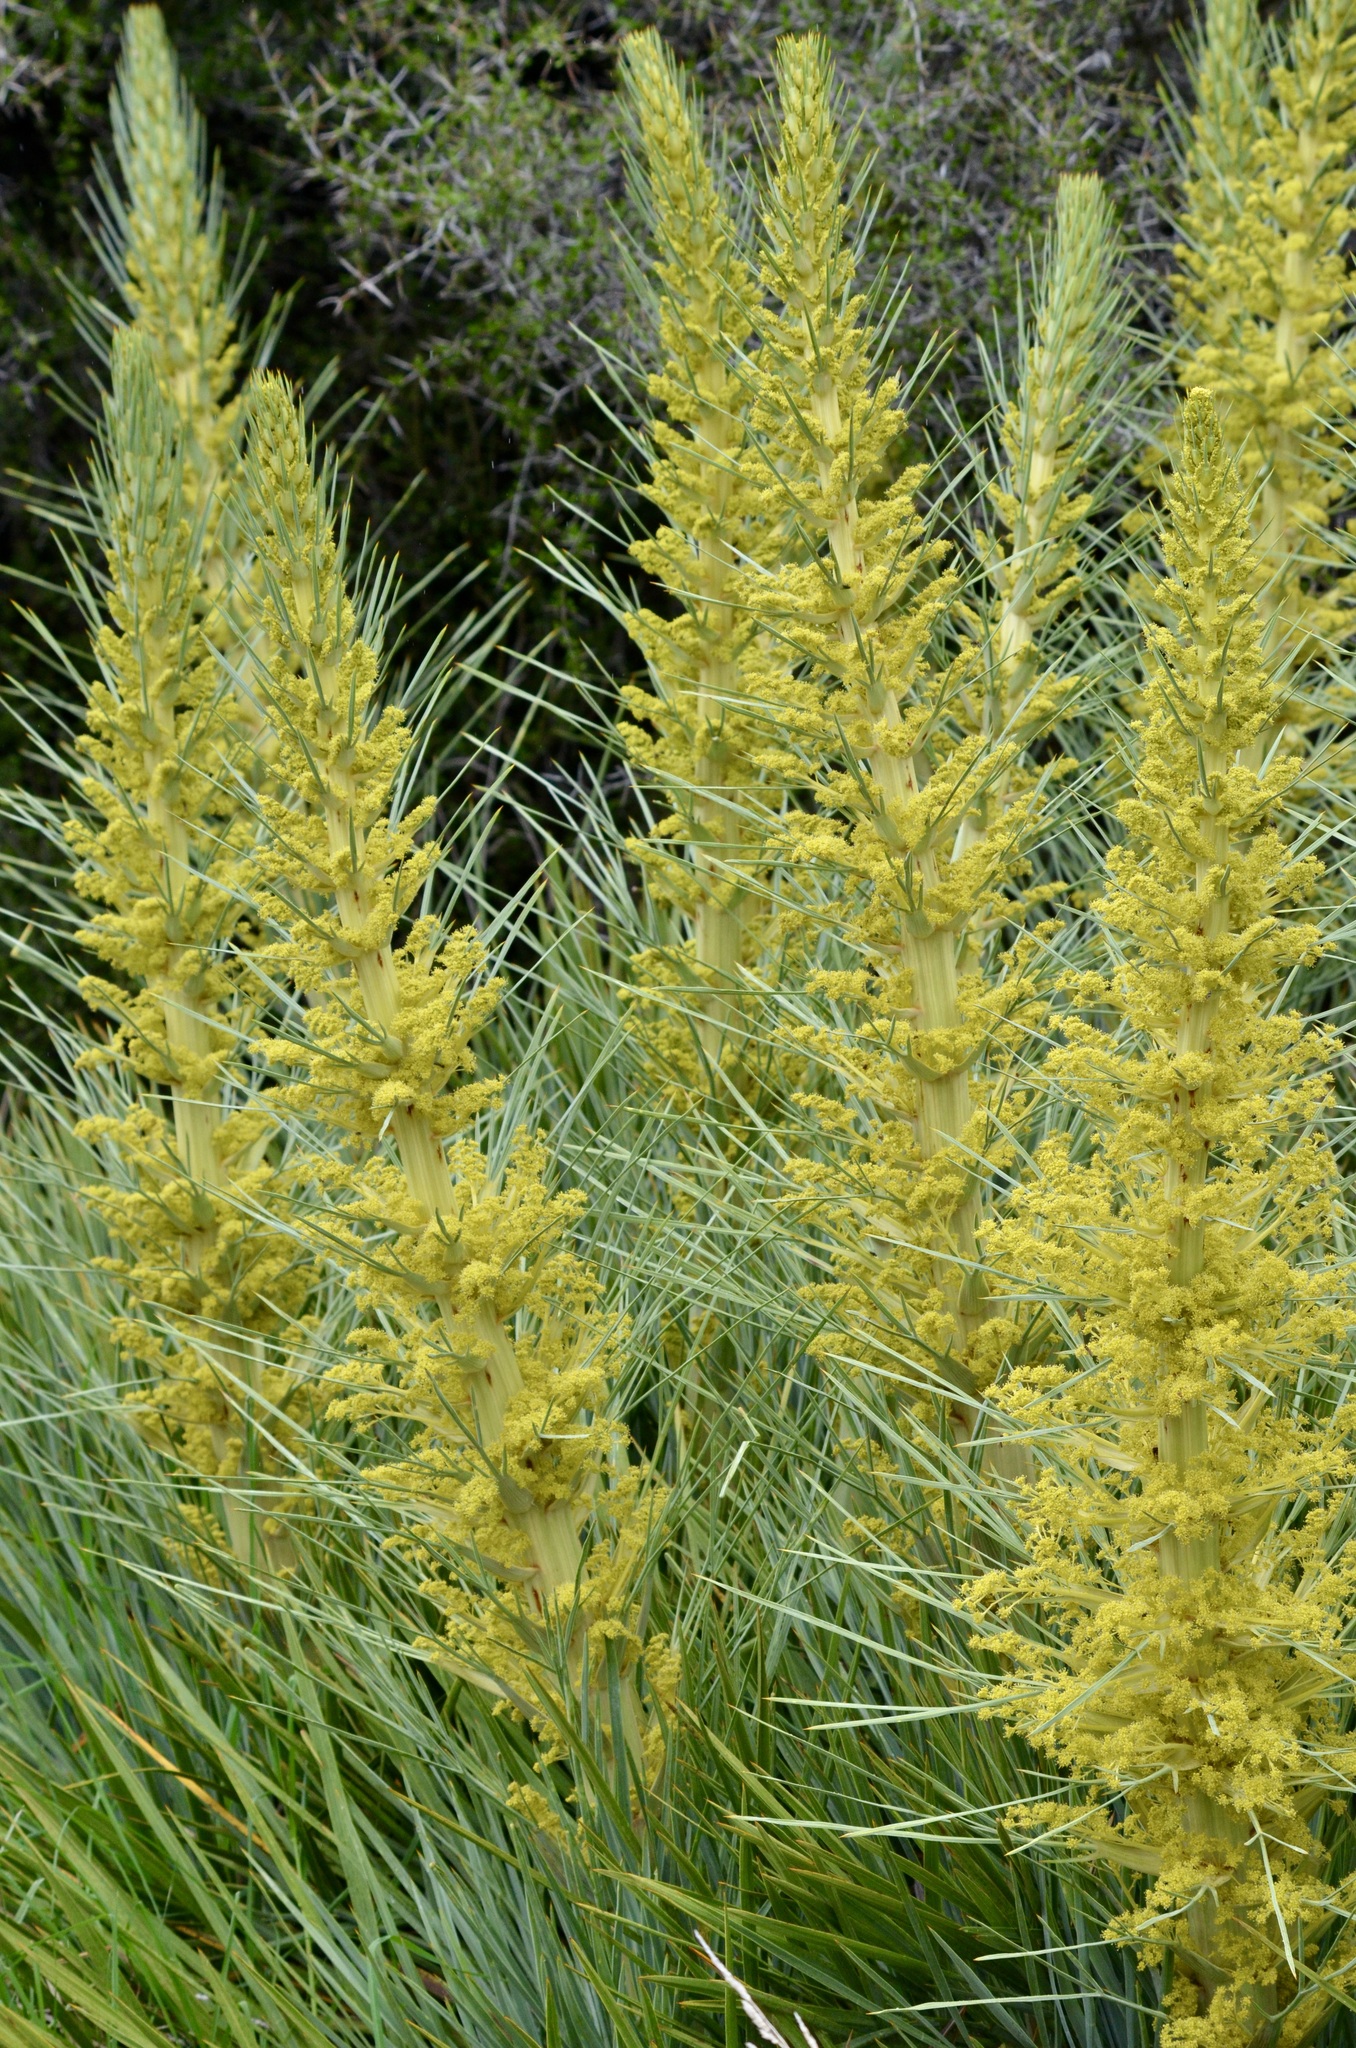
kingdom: Plantae
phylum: Tracheophyta
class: Magnoliopsida
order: Apiales
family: Apiaceae
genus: Aciphylla
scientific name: Aciphylla scott-thomsonii
